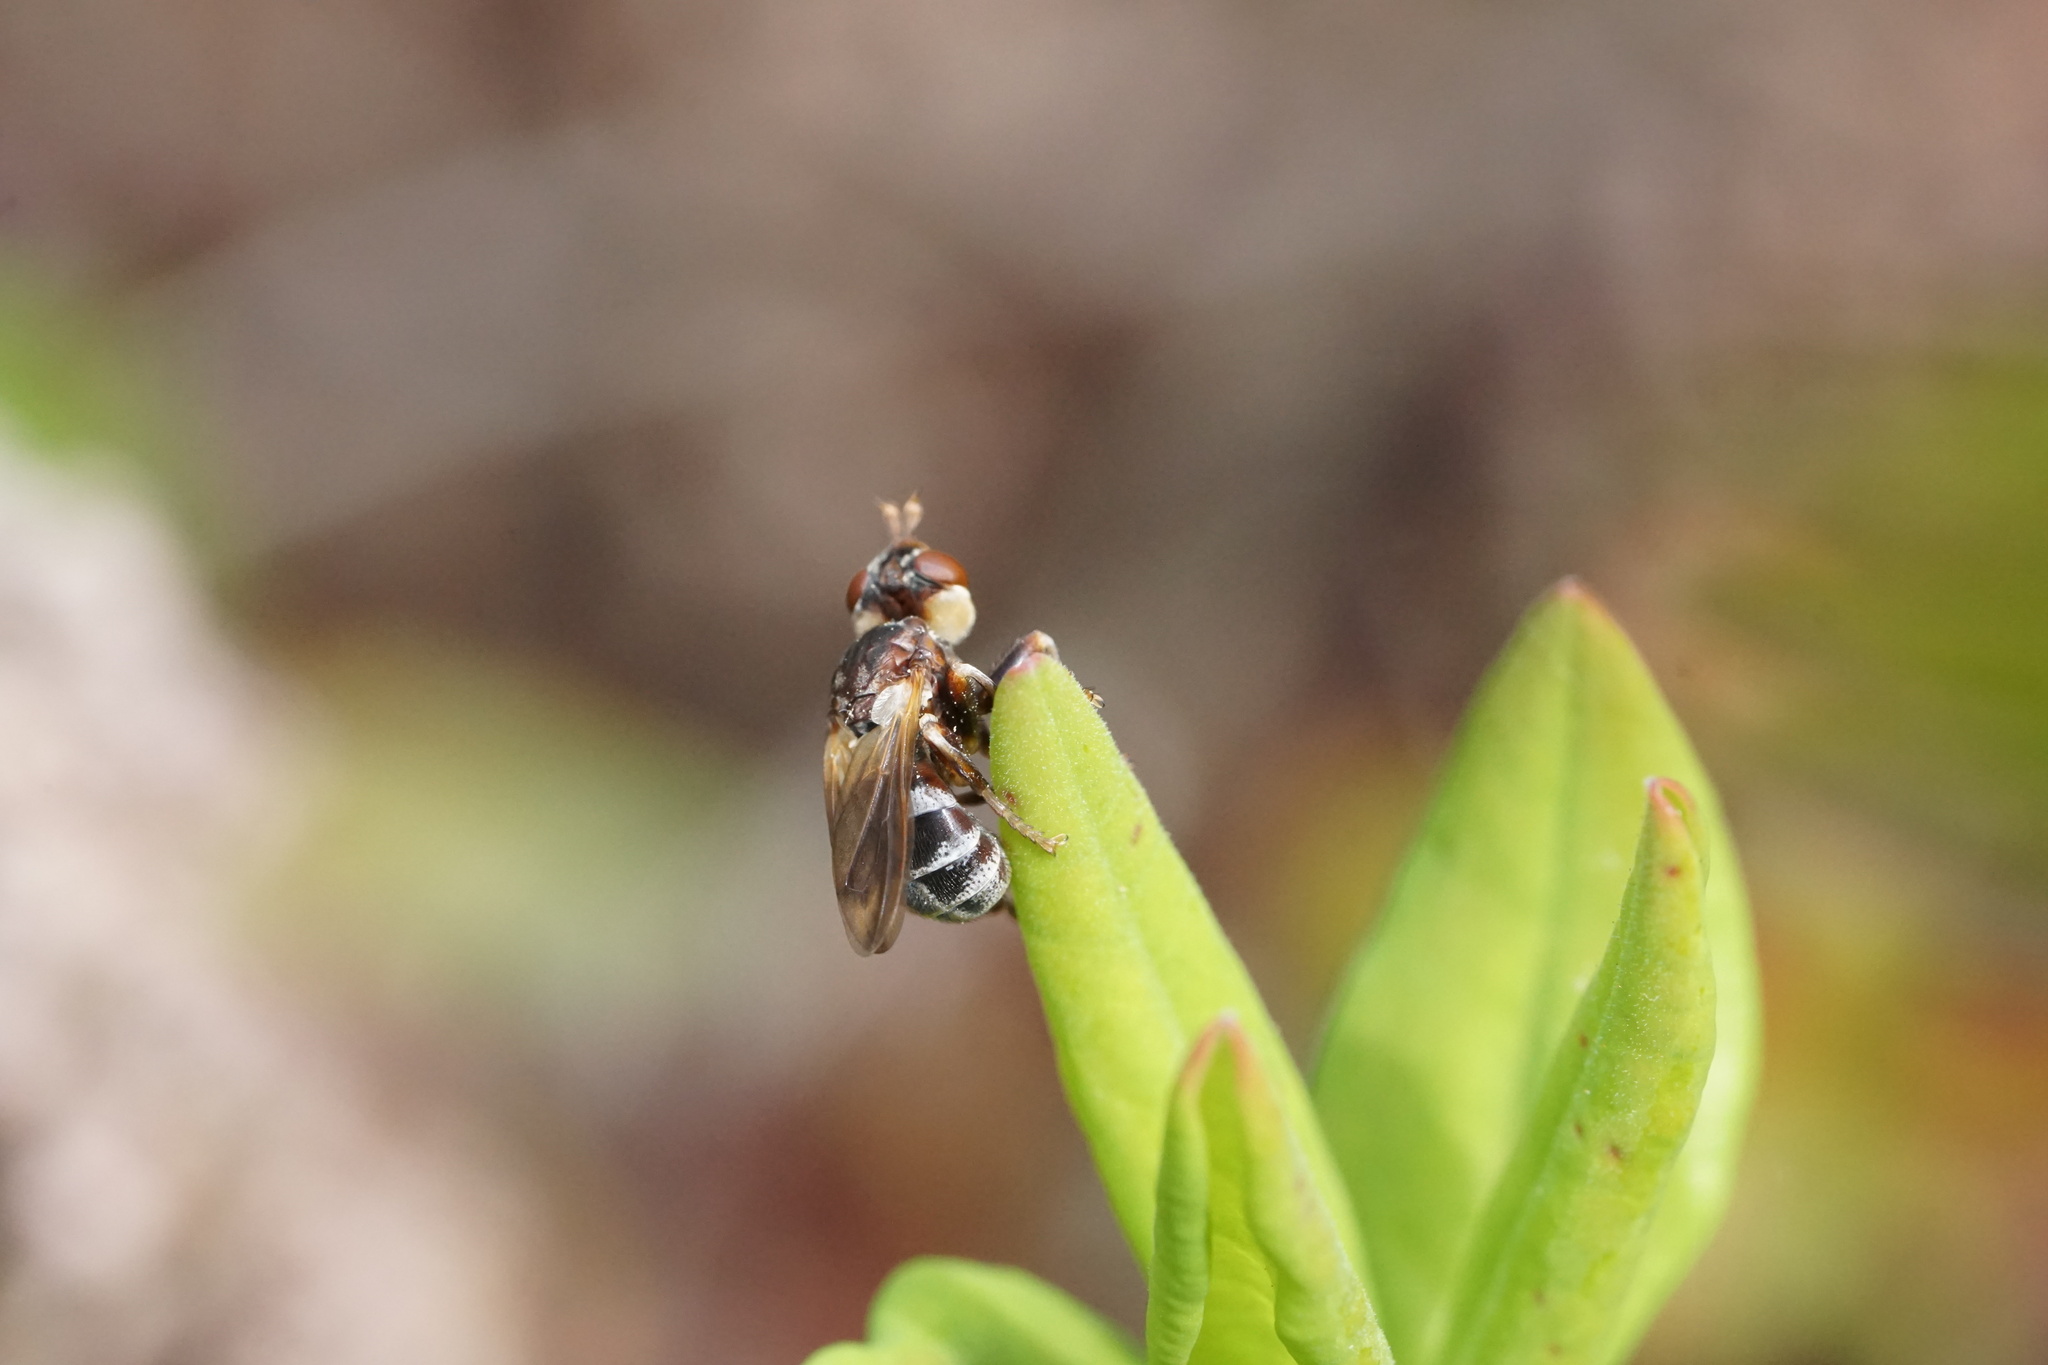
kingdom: Animalia
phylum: Arthropoda
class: Insecta
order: Diptera
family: Conopidae
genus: Myopa
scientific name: Myopa virginica
